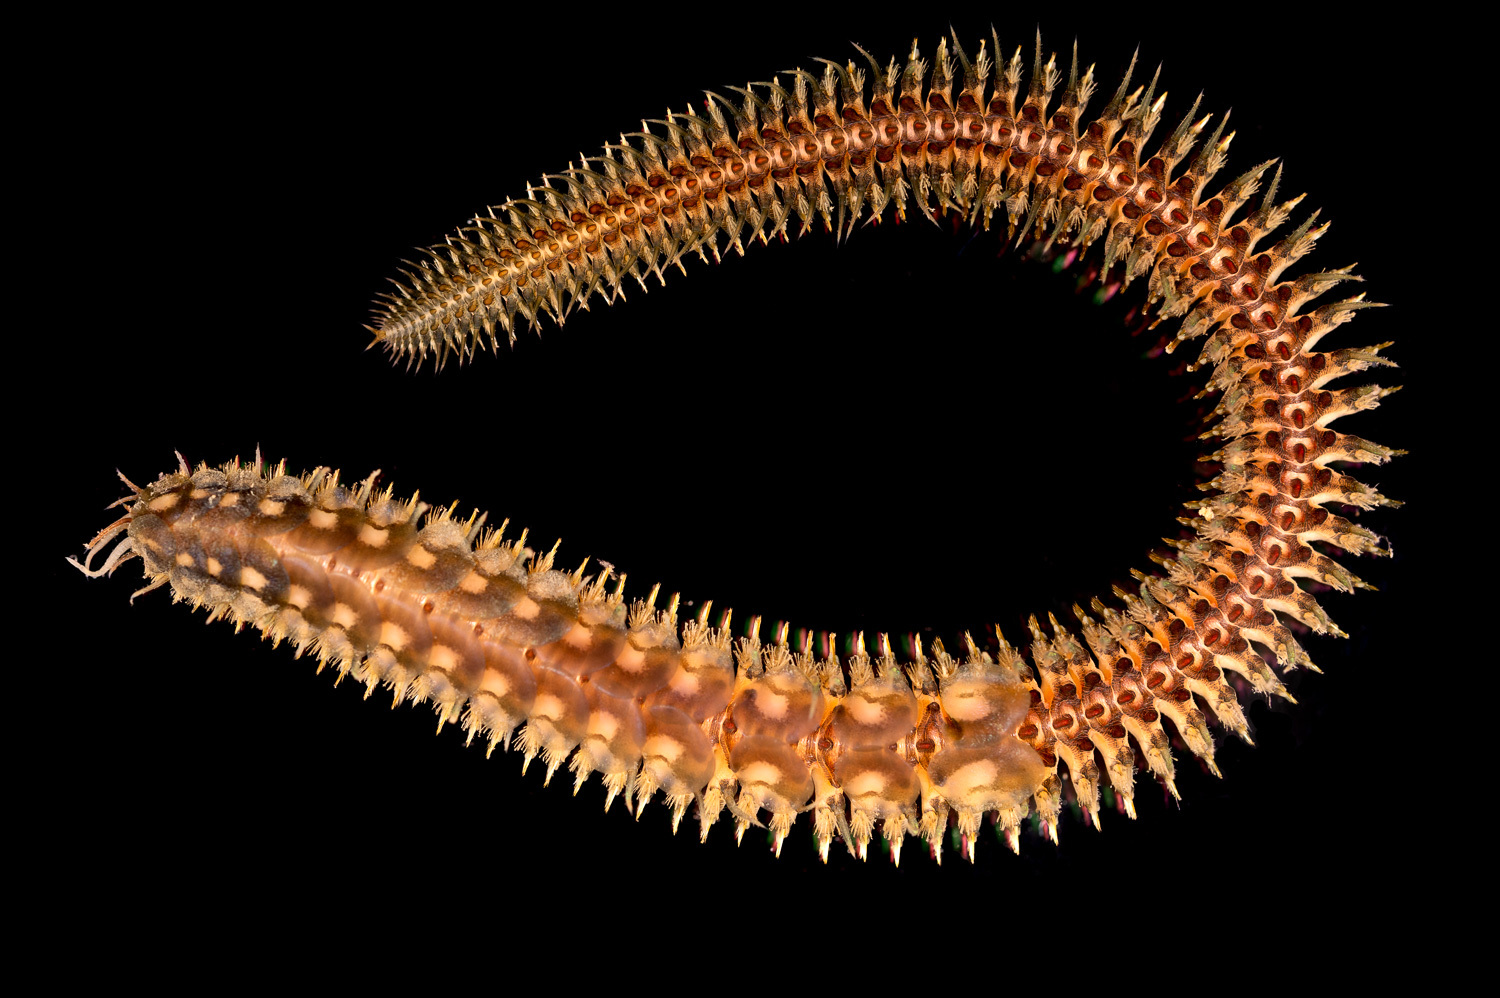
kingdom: Animalia
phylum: Annelida
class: Polychaeta
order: Phyllodocida
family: Polynoidae
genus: Polynoe
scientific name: Polynoe scolopendrina
